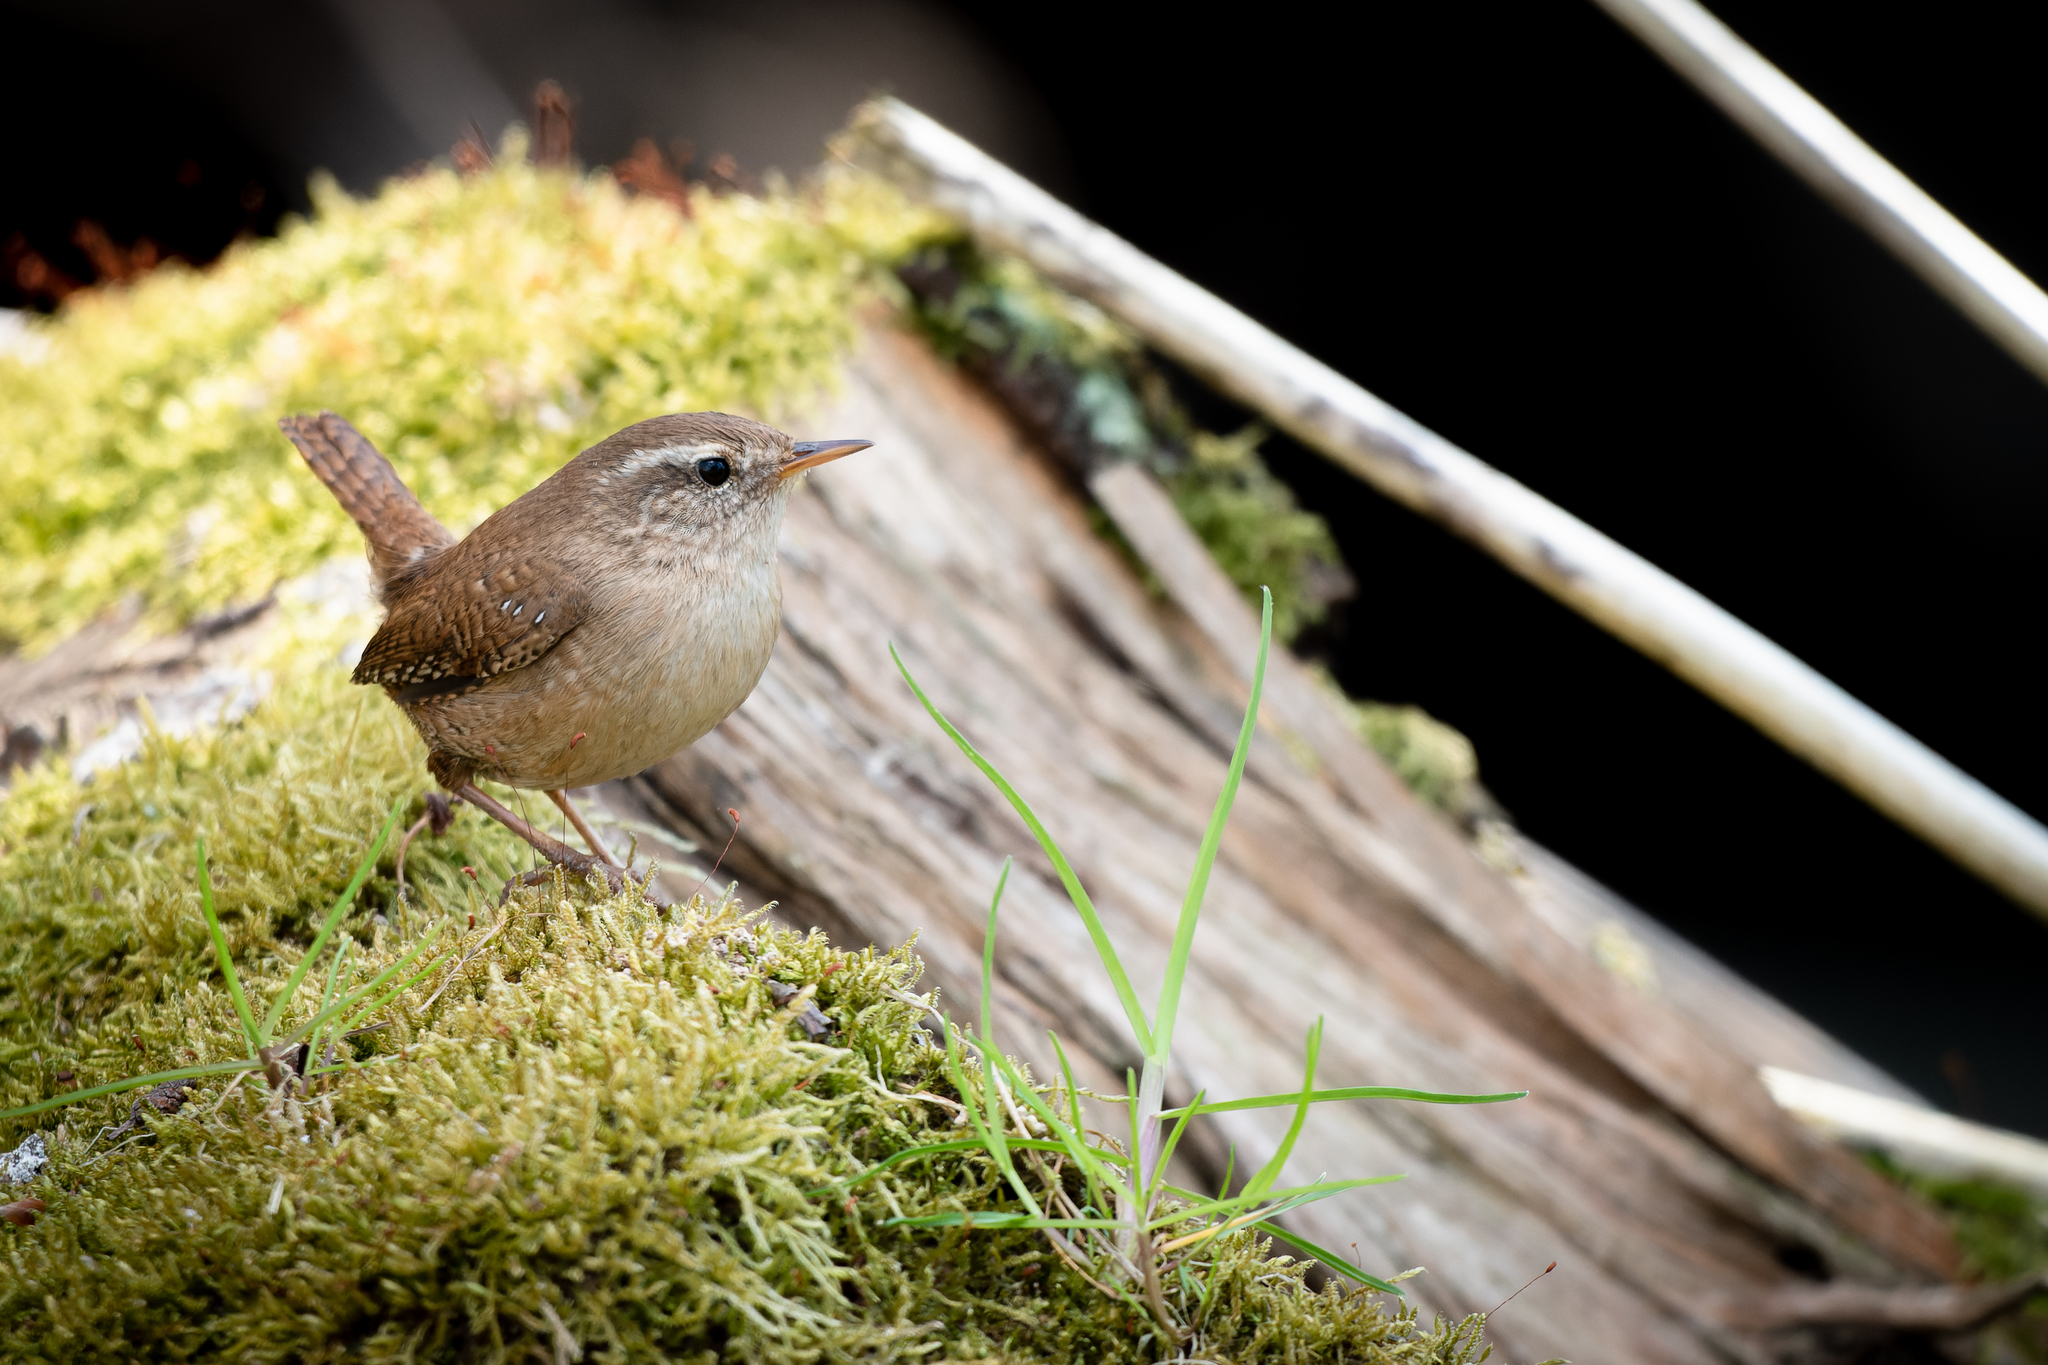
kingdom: Animalia
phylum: Chordata
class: Aves
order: Passeriformes
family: Troglodytidae
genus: Troglodytes
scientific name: Troglodytes troglodytes
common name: Eurasian wren
